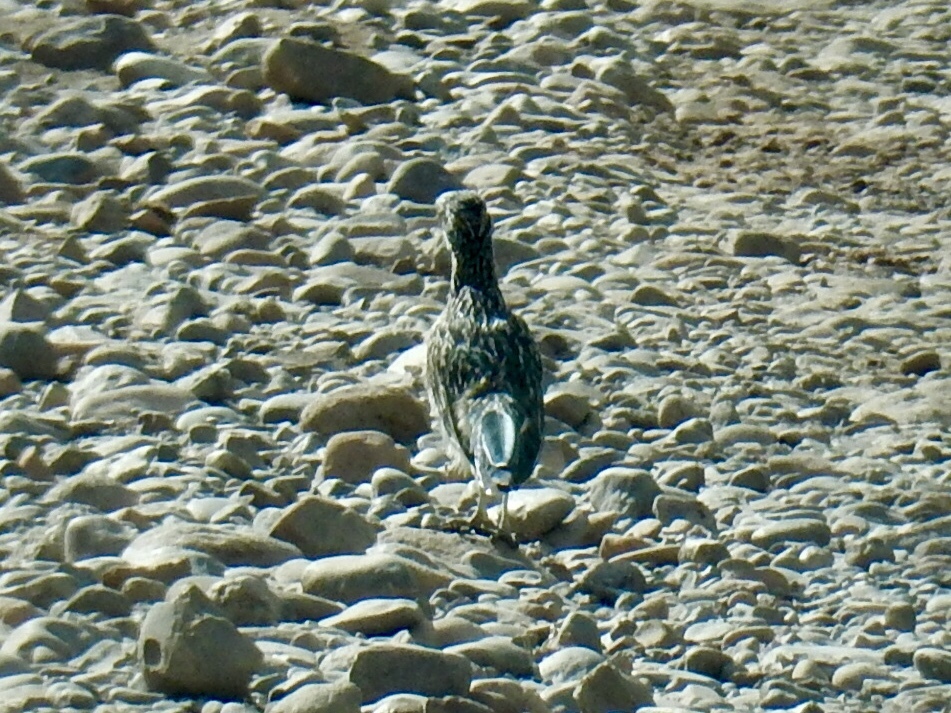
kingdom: Animalia
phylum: Chordata
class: Aves
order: Cuculiformes
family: Cuculidae
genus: Geococcyx
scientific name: Geococcyx californianus
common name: Greater roadrunner
